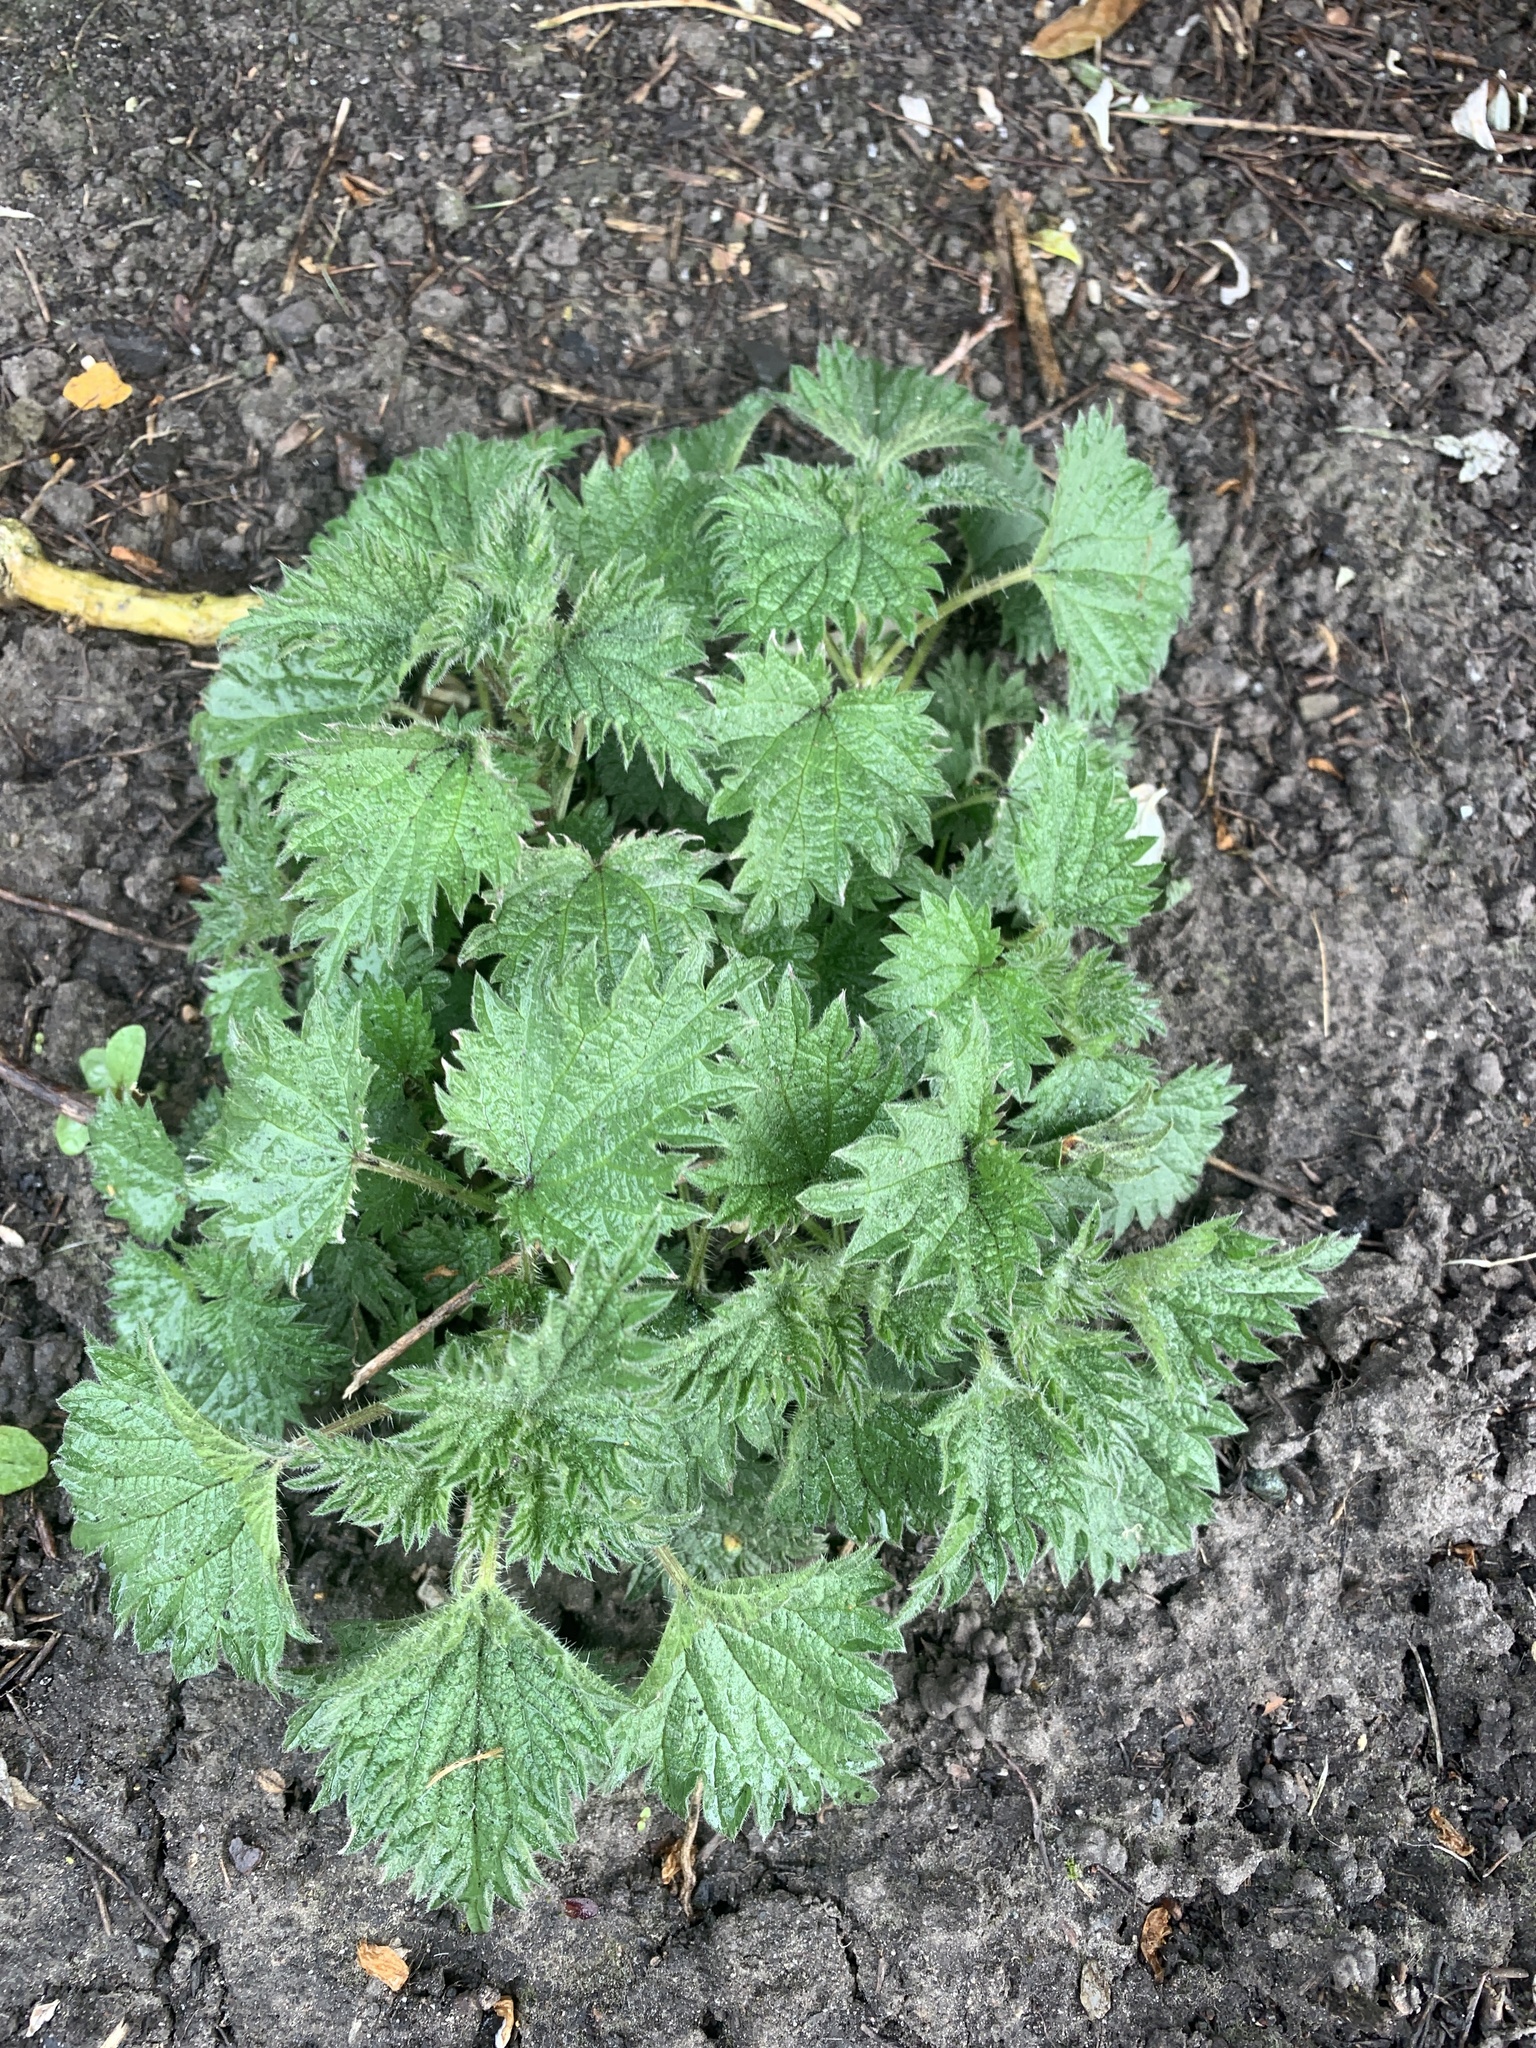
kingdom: Plantae
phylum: Tracheophyta
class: Magnoliopsida
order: Rosales
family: Urticaceae
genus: Urtica
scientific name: Urtica dioica
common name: Common nettle
